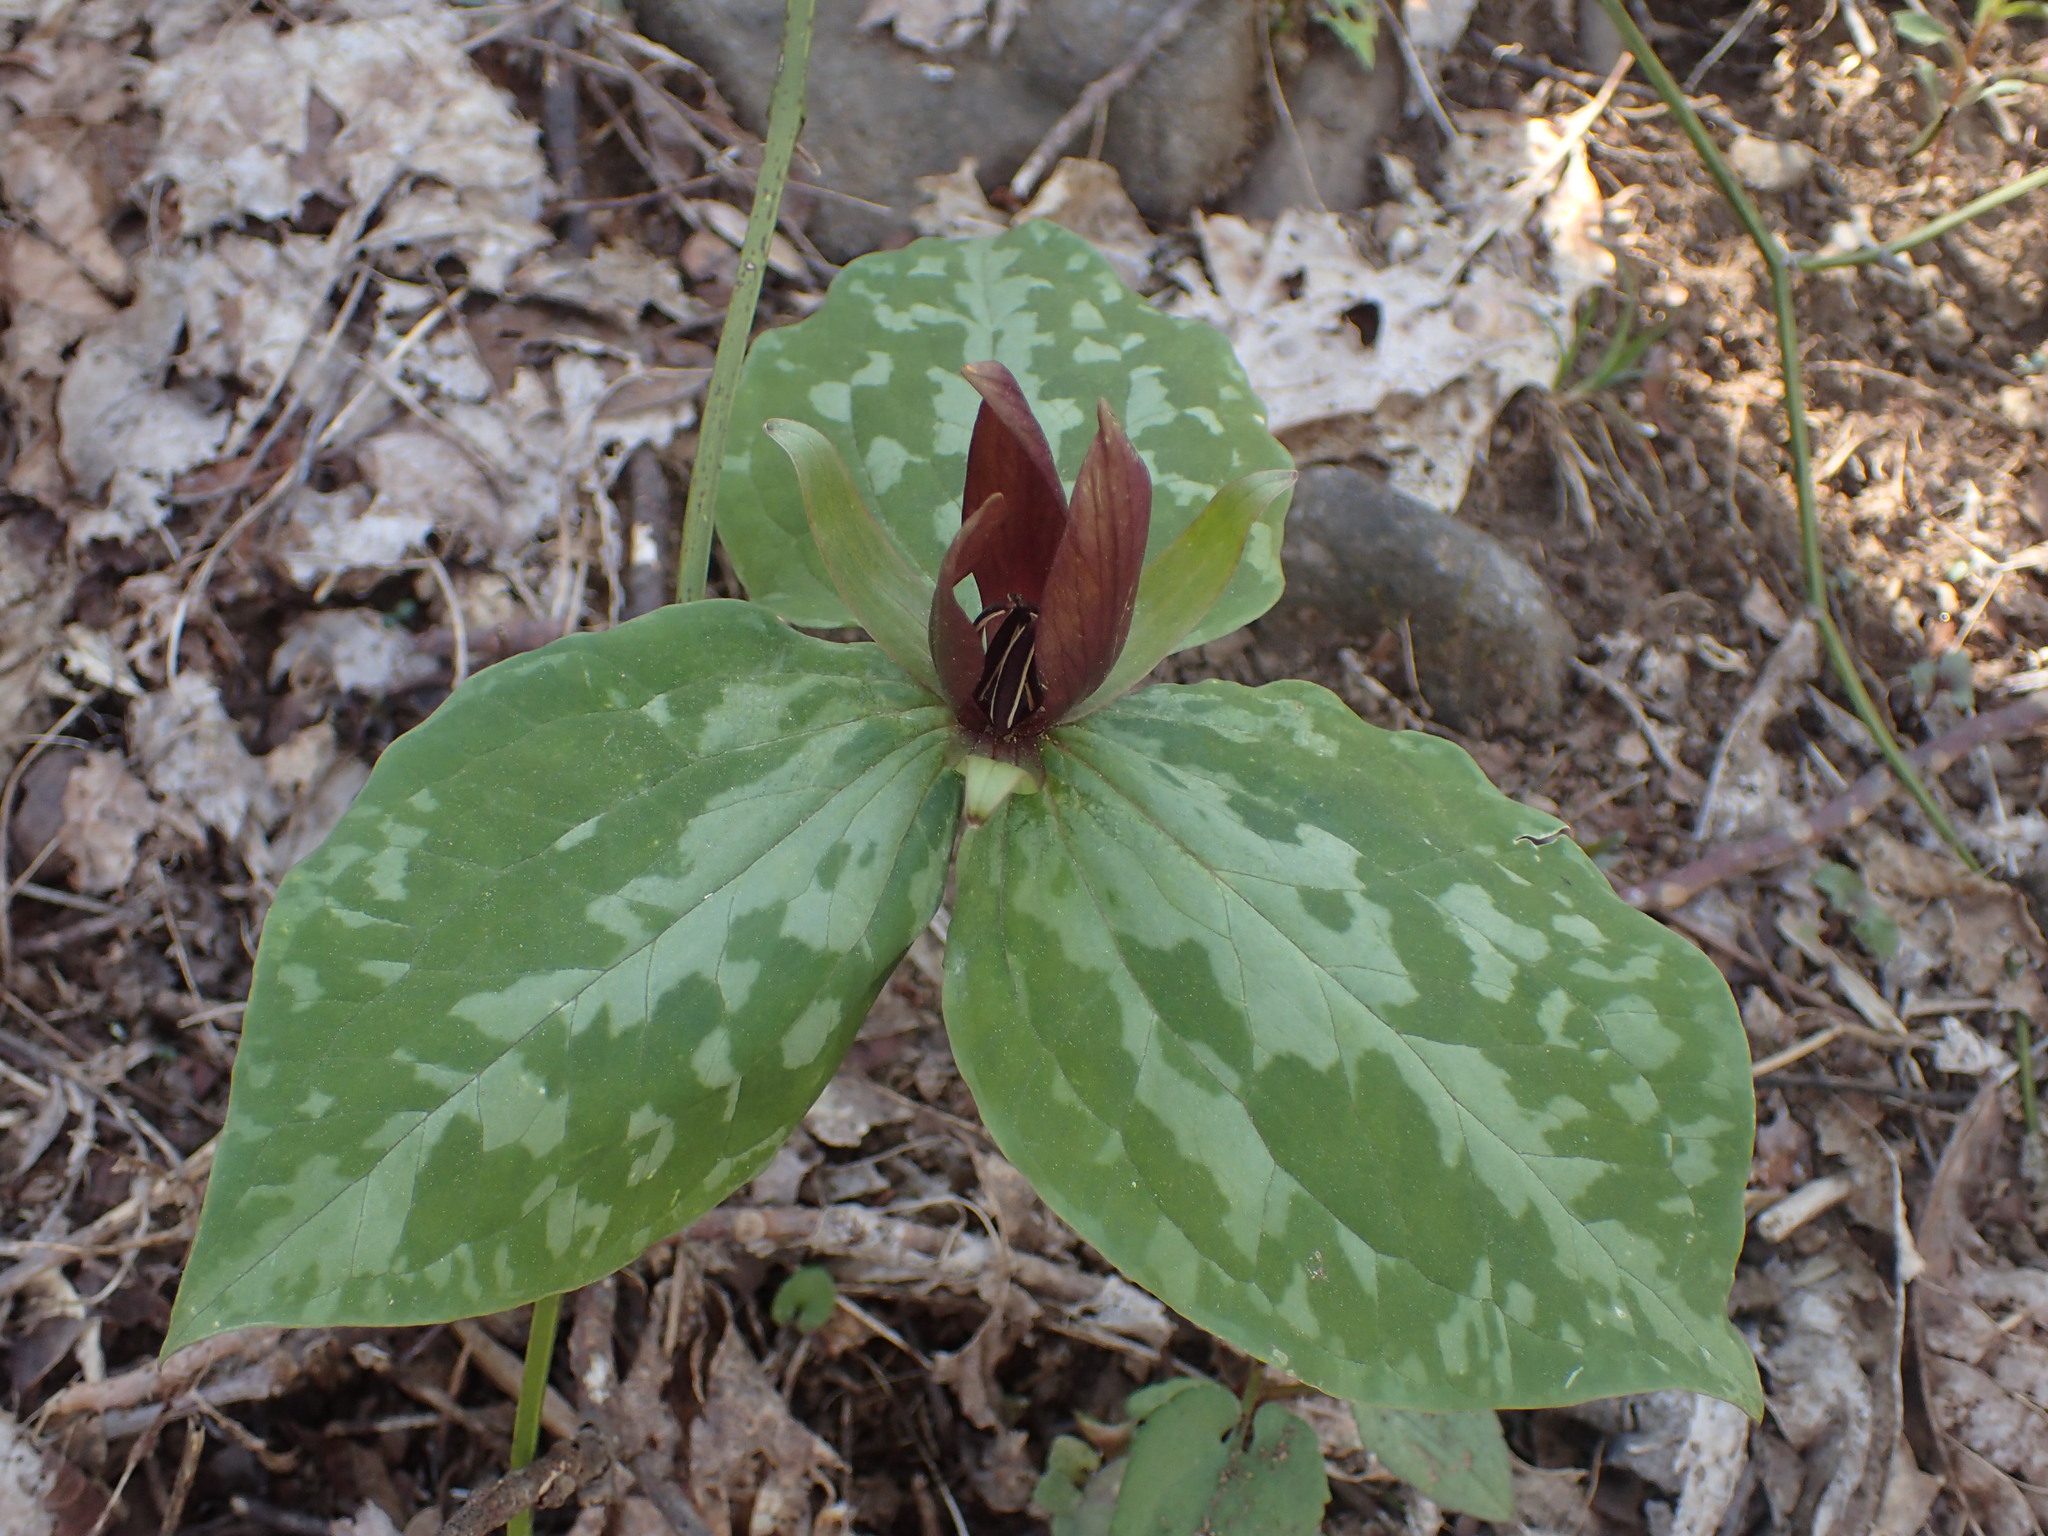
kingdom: Plantae
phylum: Tracheophyta
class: Liliopsida
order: Liliales
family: Melanthiaceae
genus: Trillium
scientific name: Trillium cuneatum
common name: Cuneate trillium
